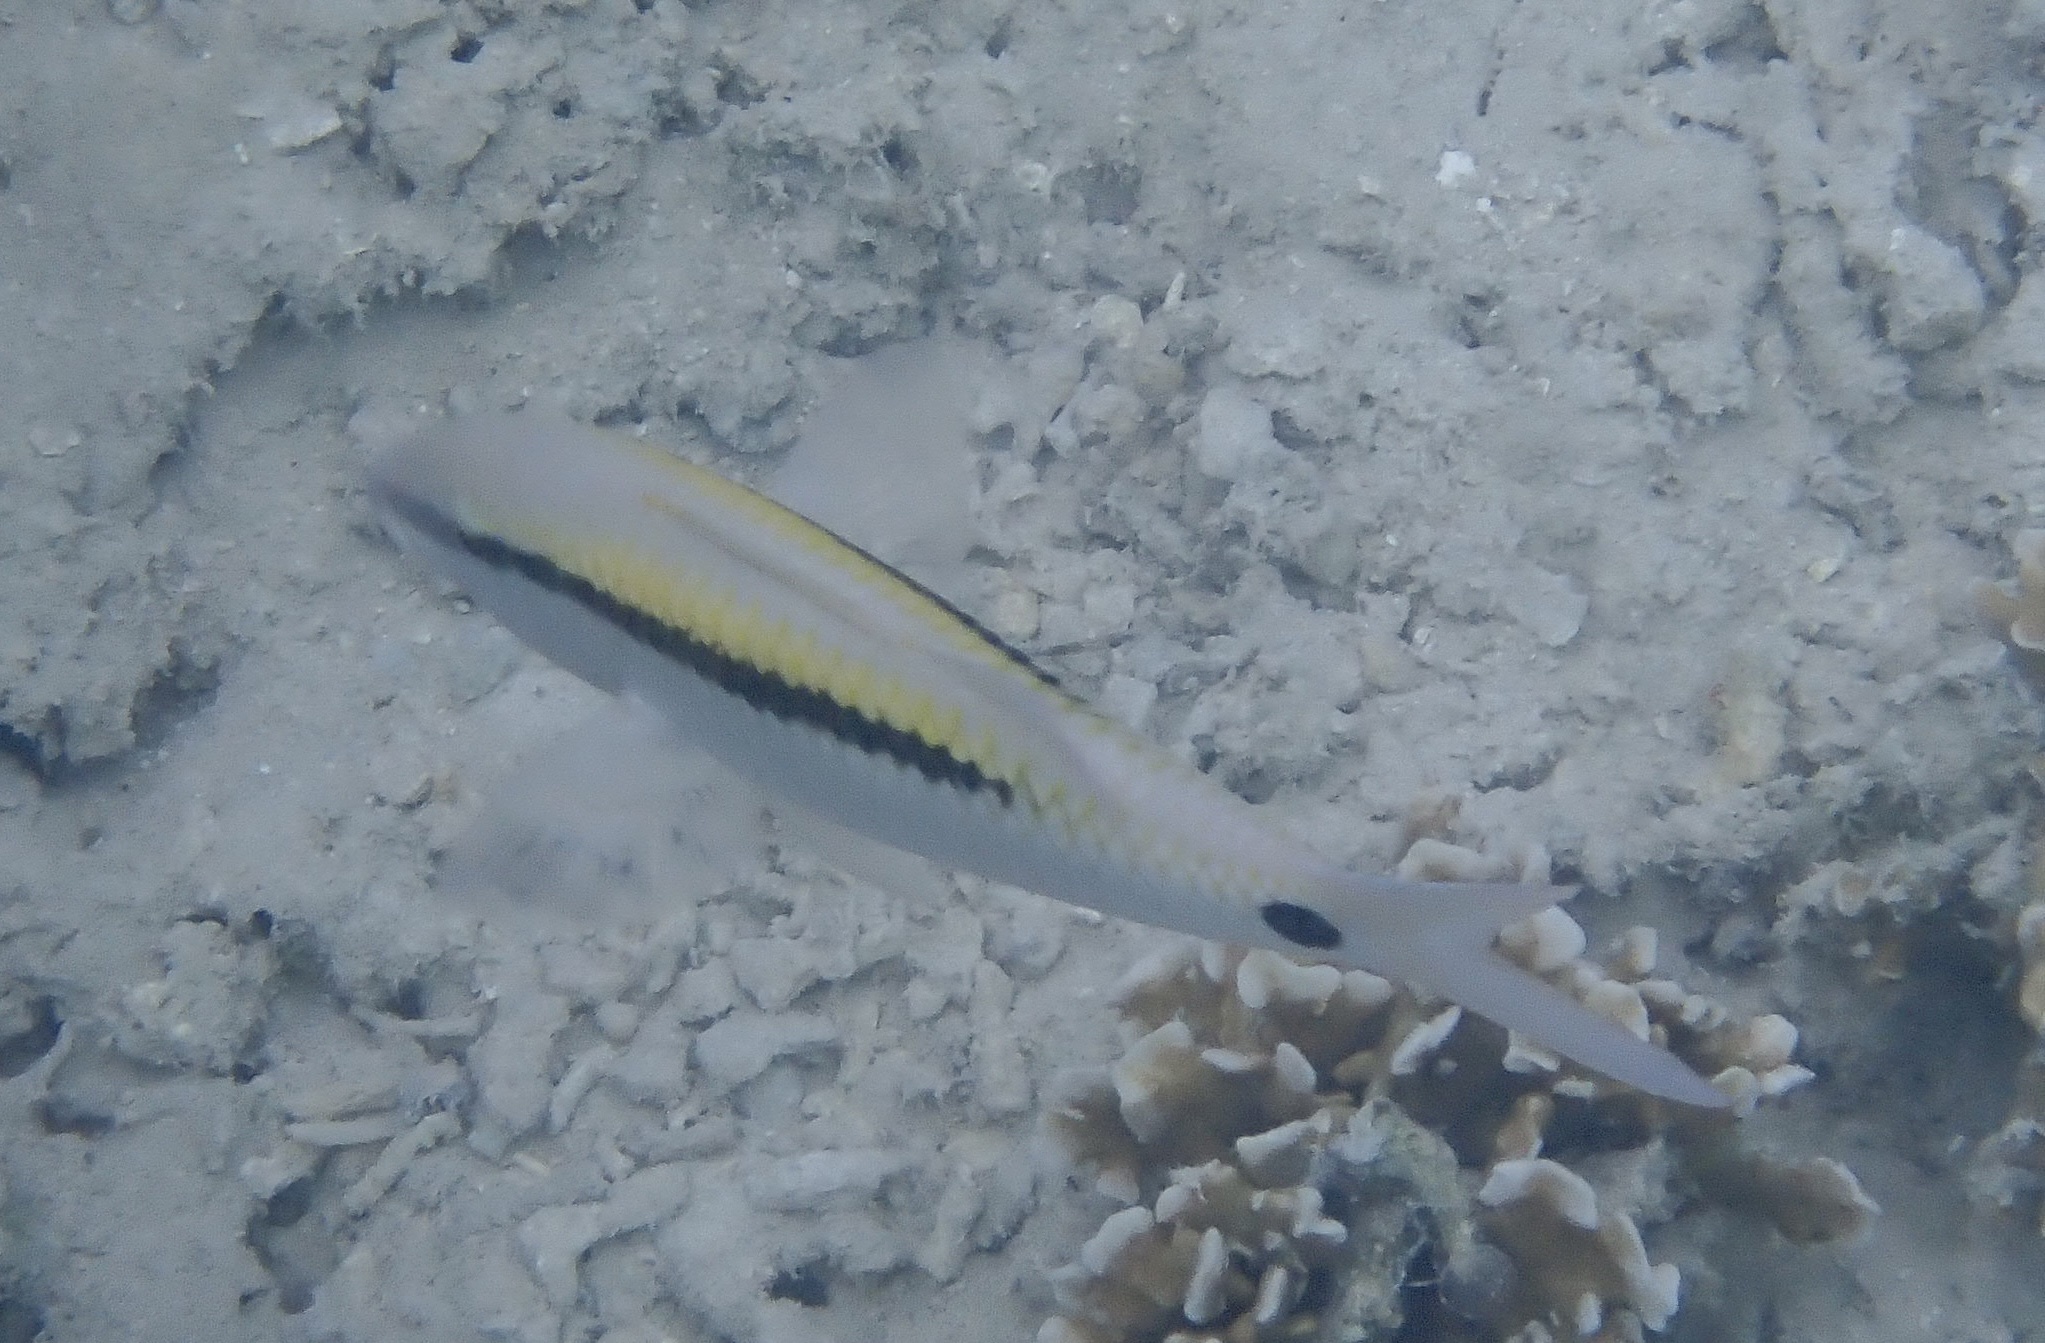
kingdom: Animalia
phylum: Chordata
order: Perciformes
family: Mullidae
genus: Parupeneus
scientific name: Parupeneus barberinus
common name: Dash-and-dot goatfish
